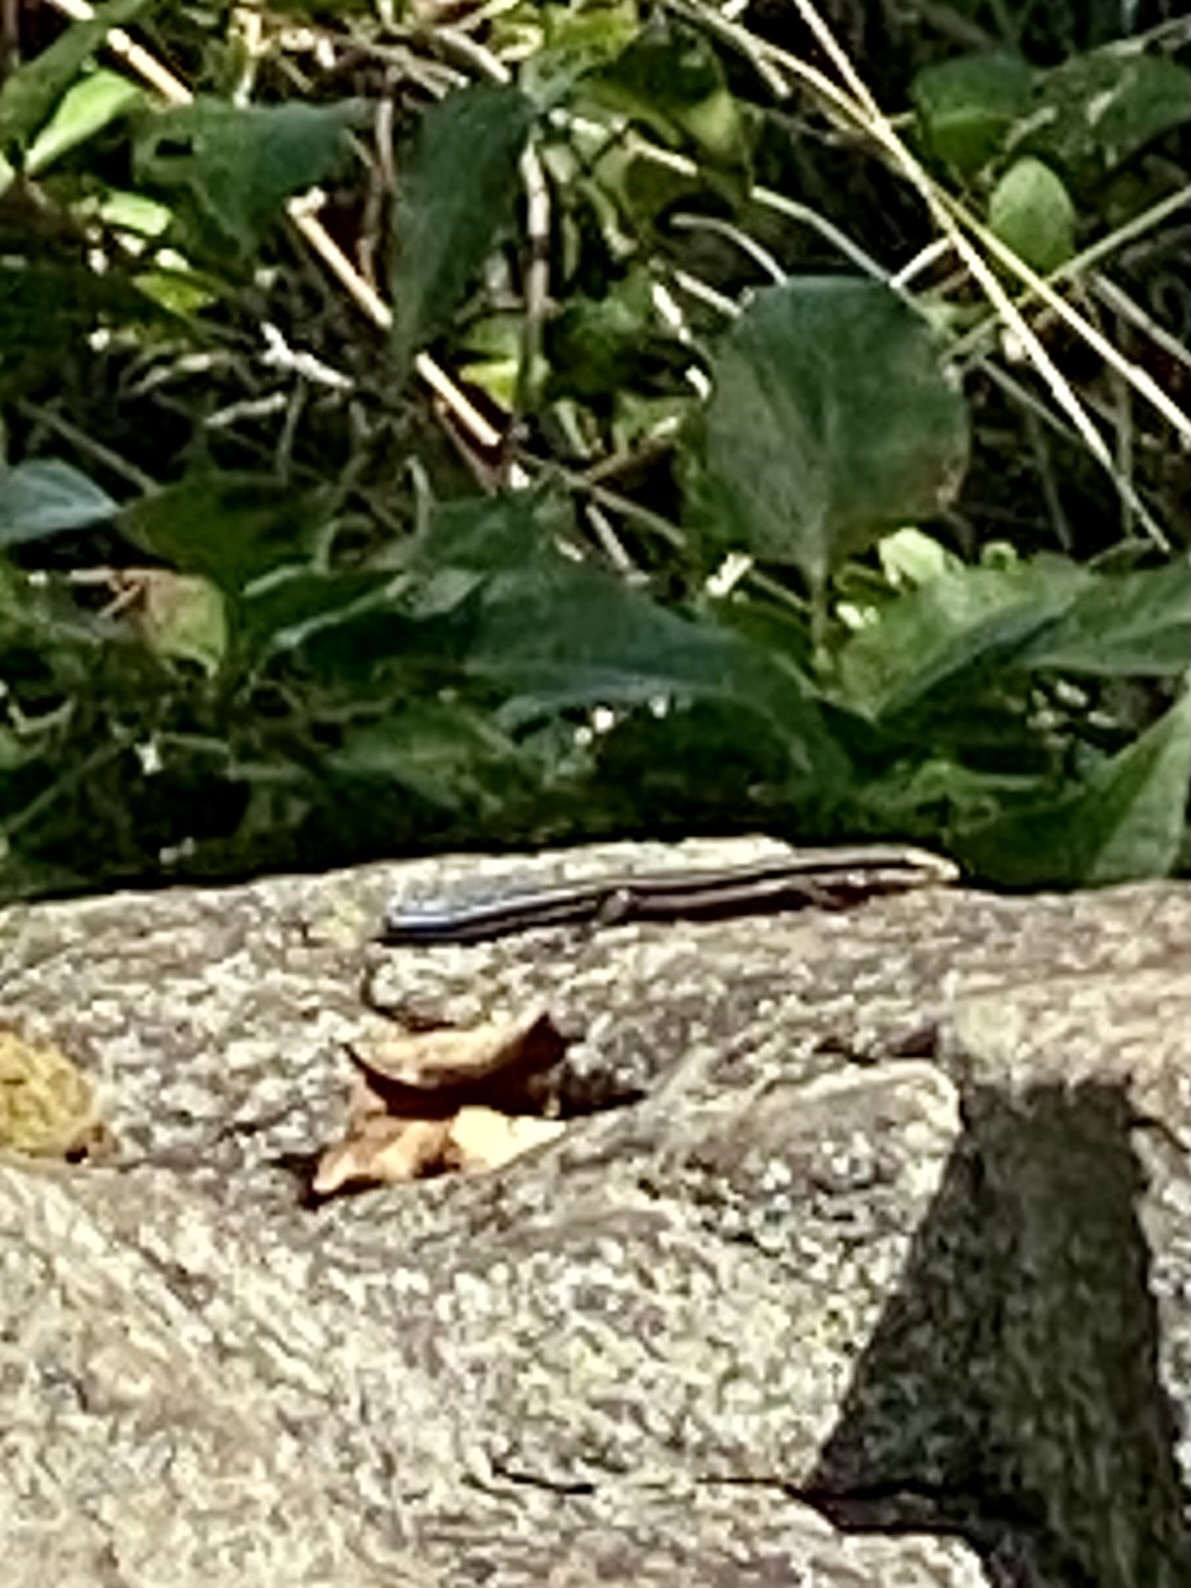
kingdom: Animalia
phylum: Chordata
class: Squamata
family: Scincidae
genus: Plestiodon
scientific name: Plestiodon fasciatus
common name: Five-lined skink
